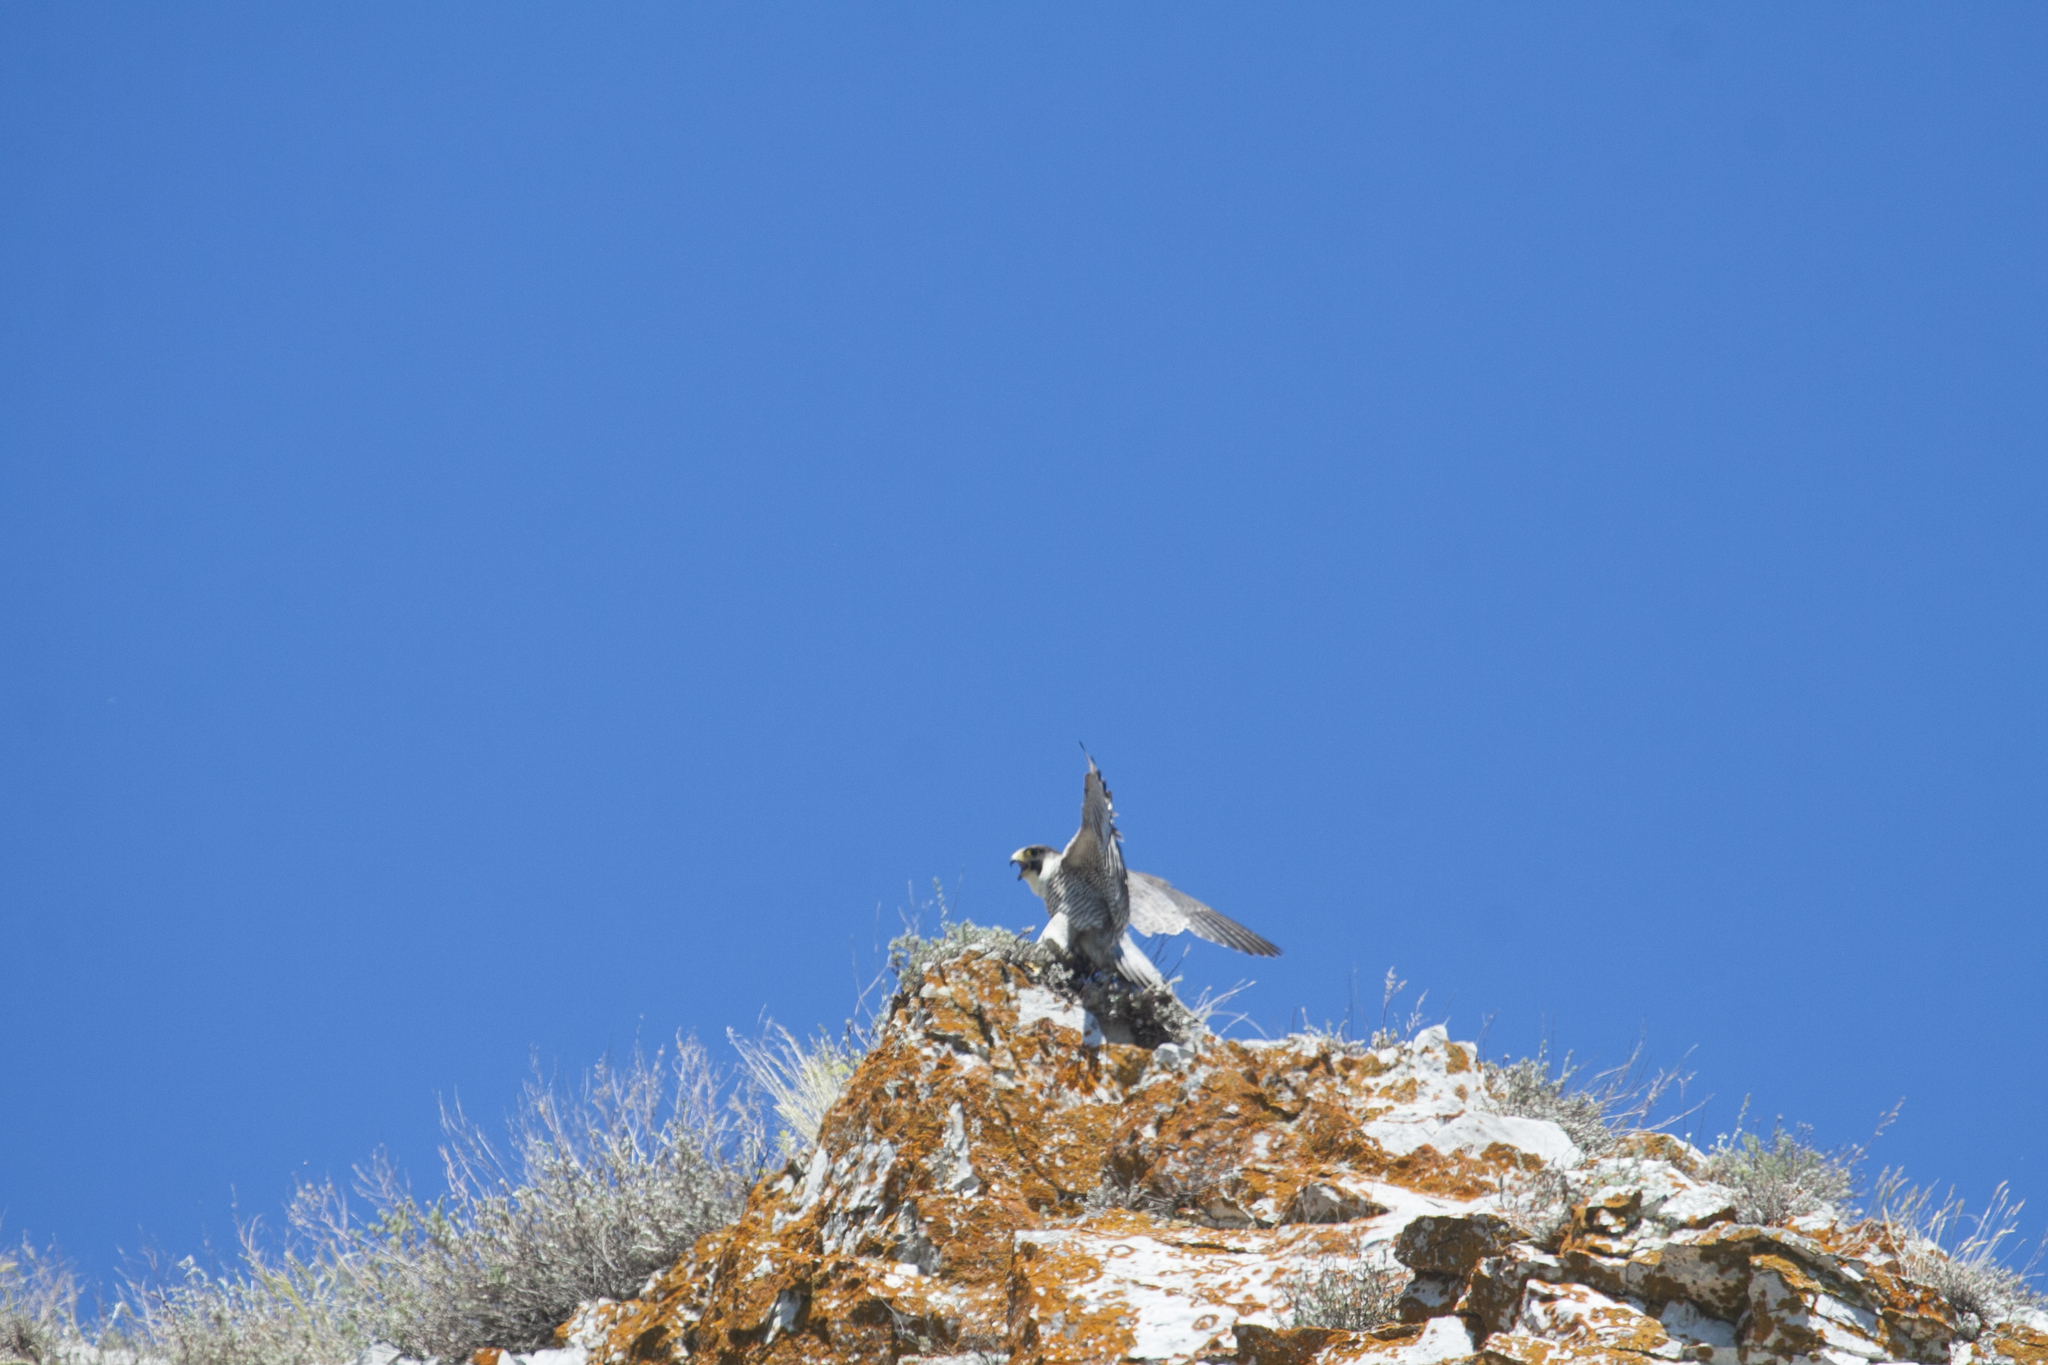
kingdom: Animalia
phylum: Chordata
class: Aves
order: Falconiformes
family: Falconidae
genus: Falco
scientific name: Falco peregrinus
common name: Peregrine falcon
